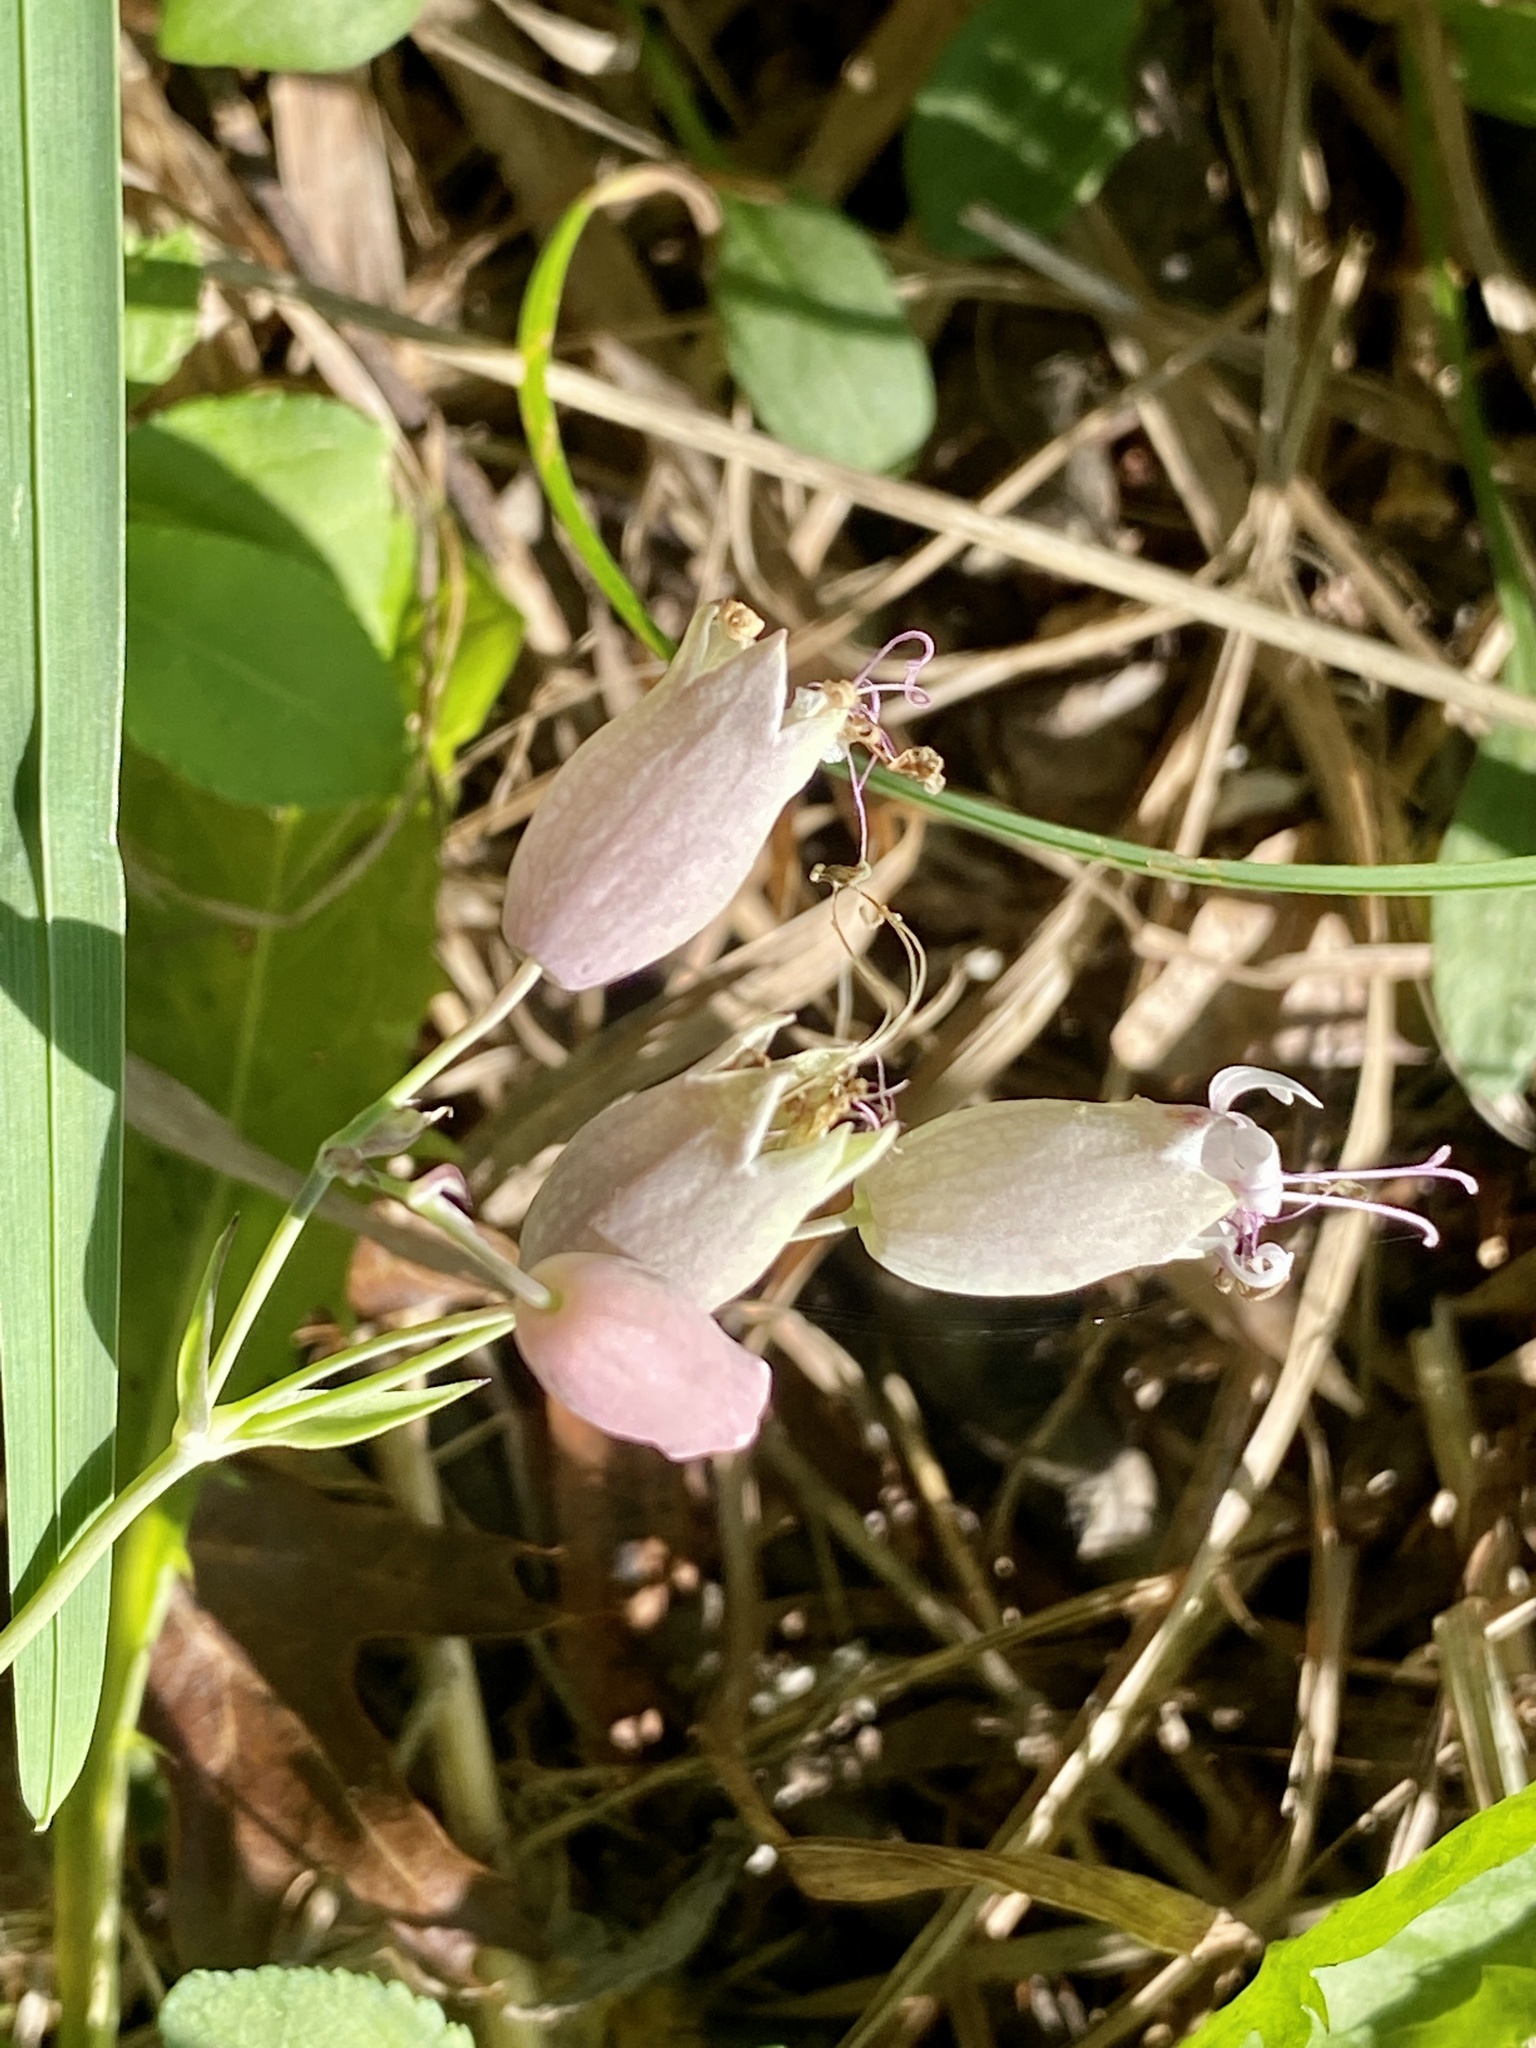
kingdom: Plantae
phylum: Tracheophyta
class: Magnoliopsida
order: Caryophyllales
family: Caryophyllaceae
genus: Silene
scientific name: Silene vulgaris
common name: Bladder campion
